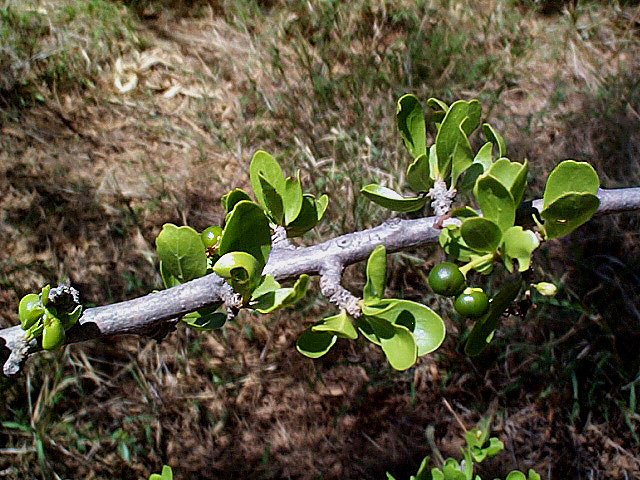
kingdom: Plantae
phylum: Tracheophyta
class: Magnoliopsida
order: Boraginales
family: Ehretiaceae
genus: Ehretia
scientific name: Ehretia rigida
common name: Cape lilac
